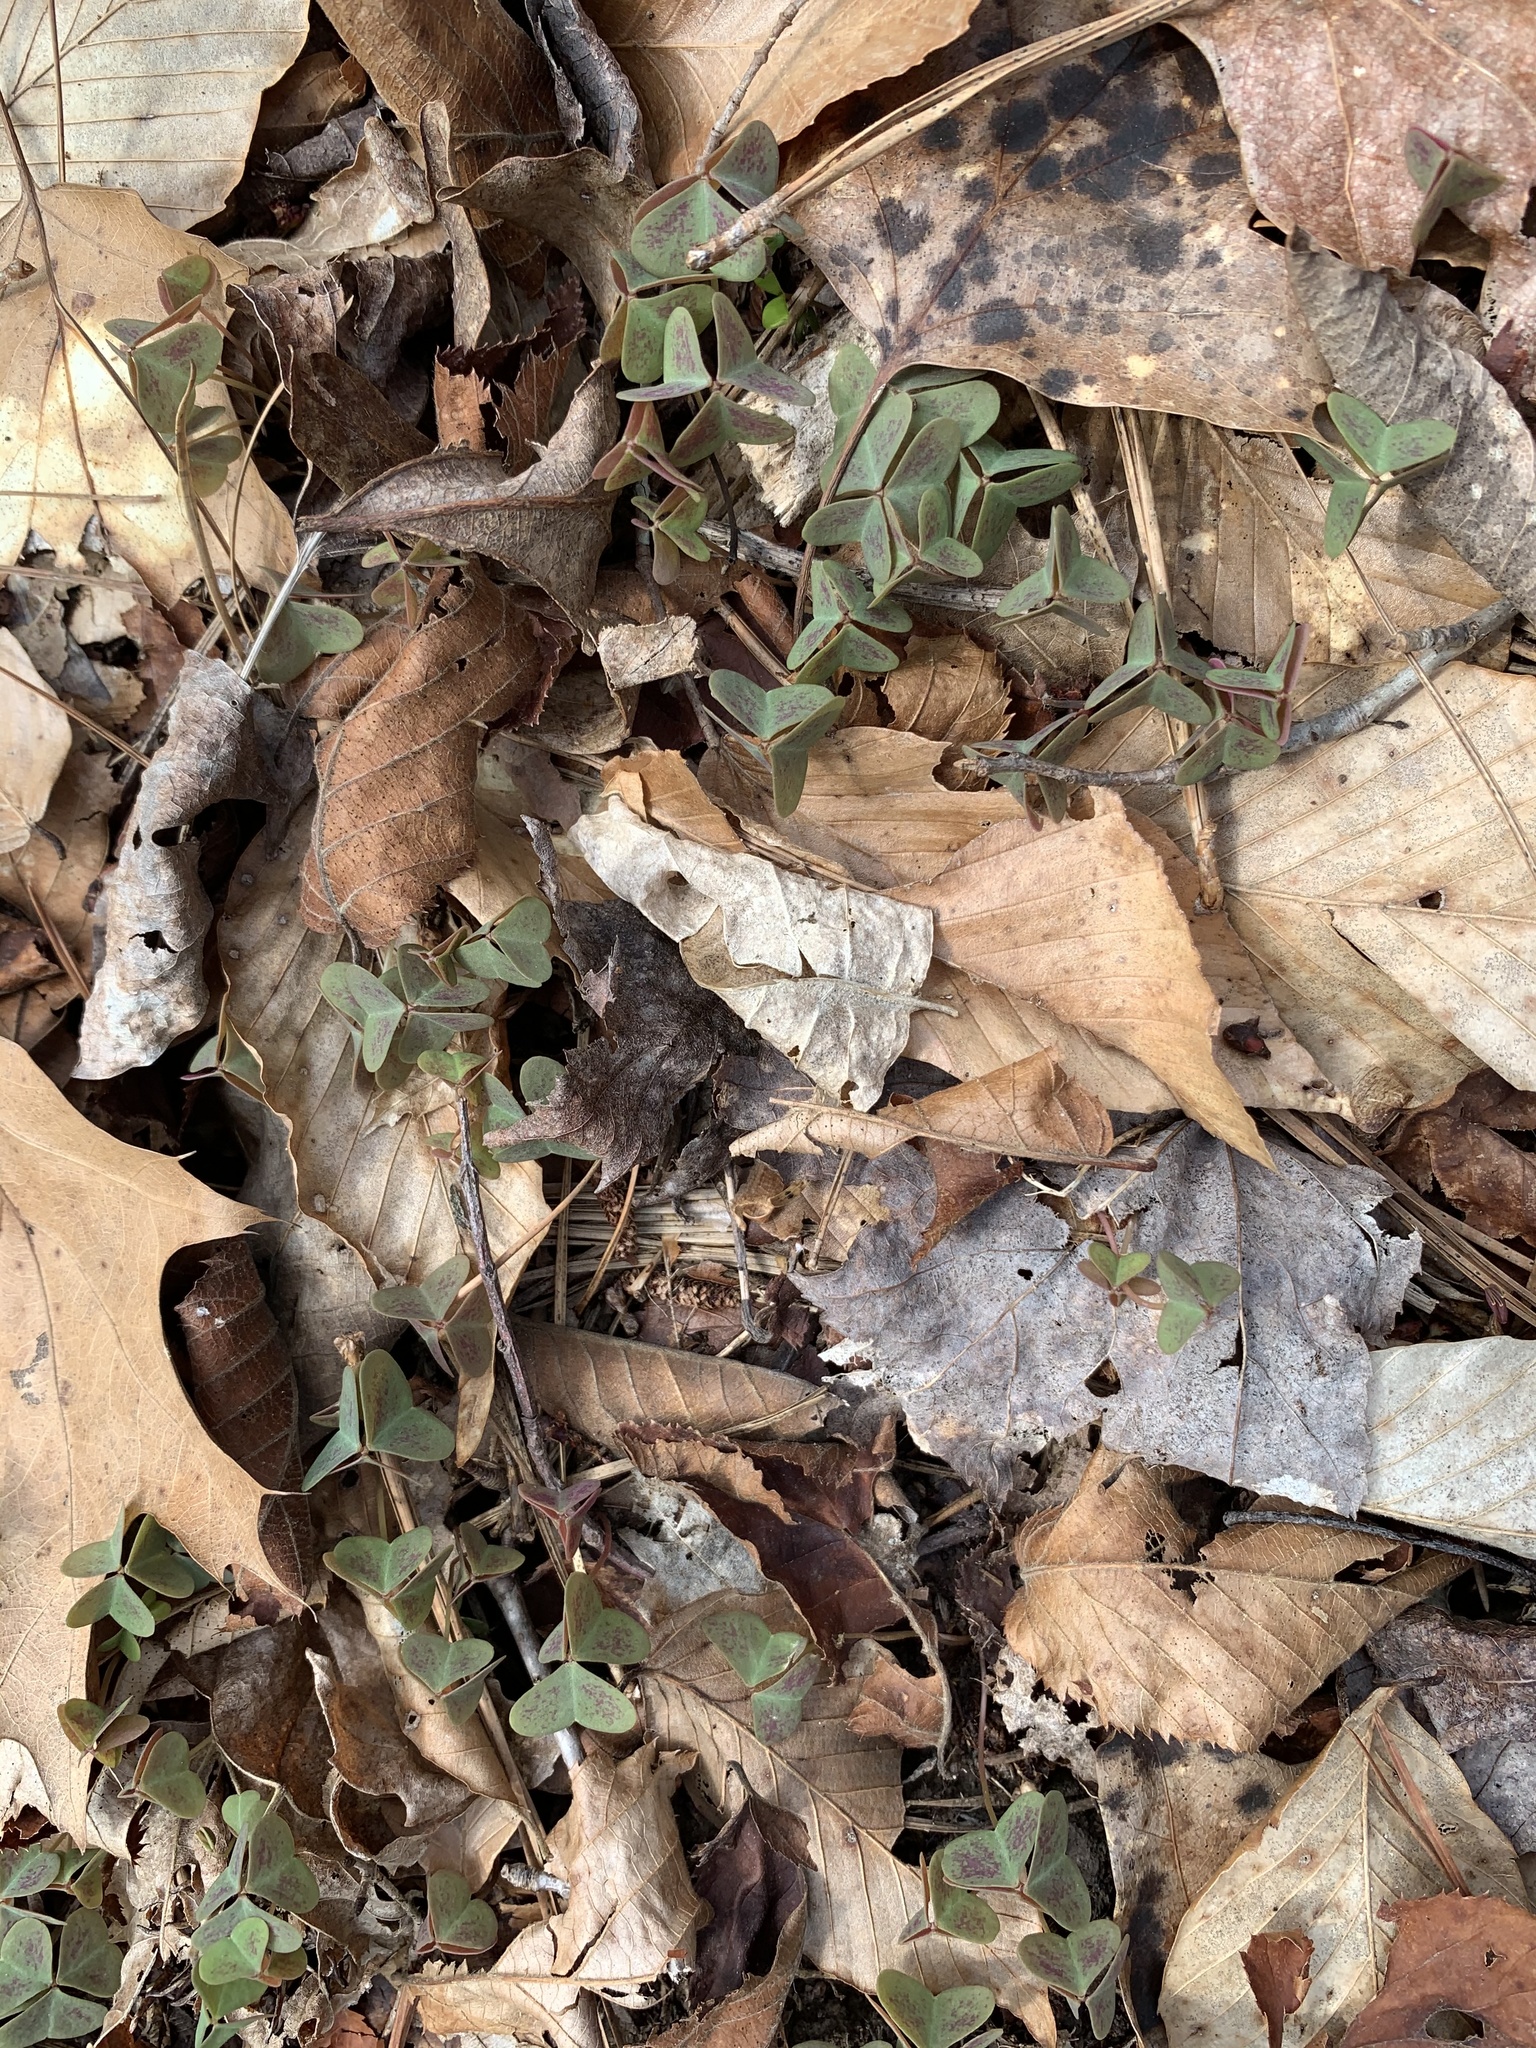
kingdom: Plantae
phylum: Tracheophyta
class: Magnoliopsida
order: Oxalidales
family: Oxalidaceae
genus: Oxalis
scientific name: Oxalis violacea
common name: Violet wood-sorrel
